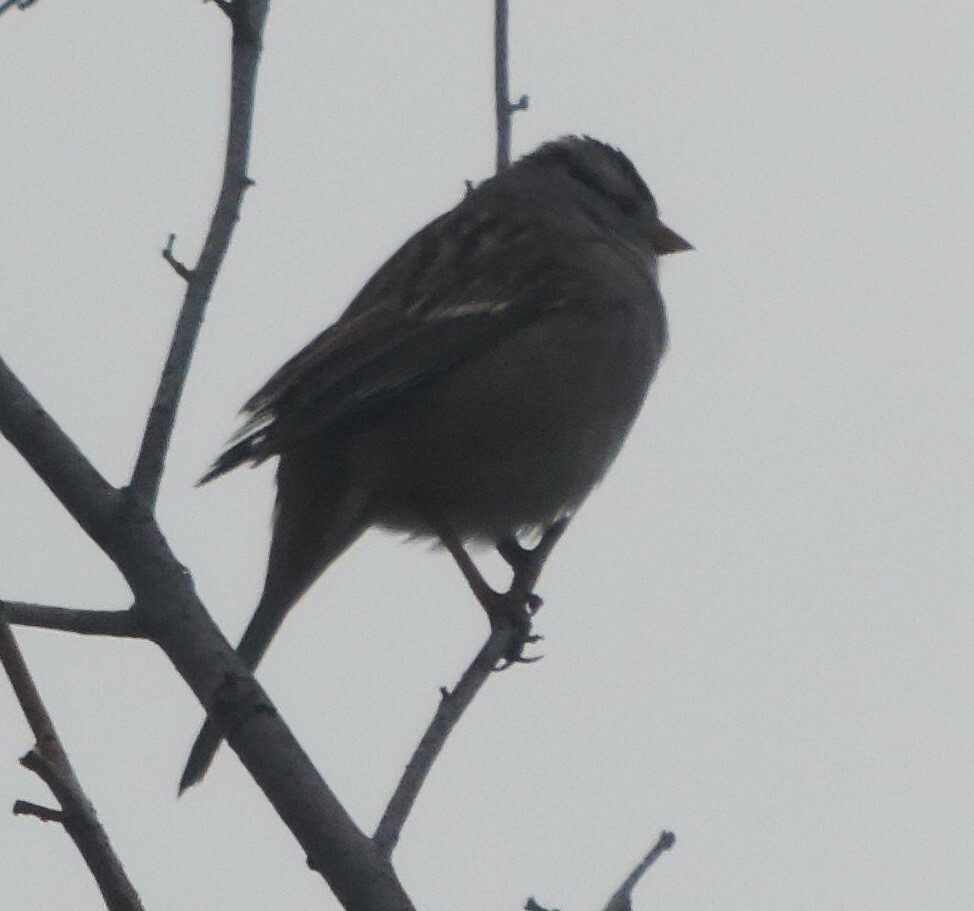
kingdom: Animalia
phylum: Chordata
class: Aves
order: Passeriformes
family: Passerellidae
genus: Zonotrichia
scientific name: Zonotrichia leucophrys
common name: White-crowned sparrow
